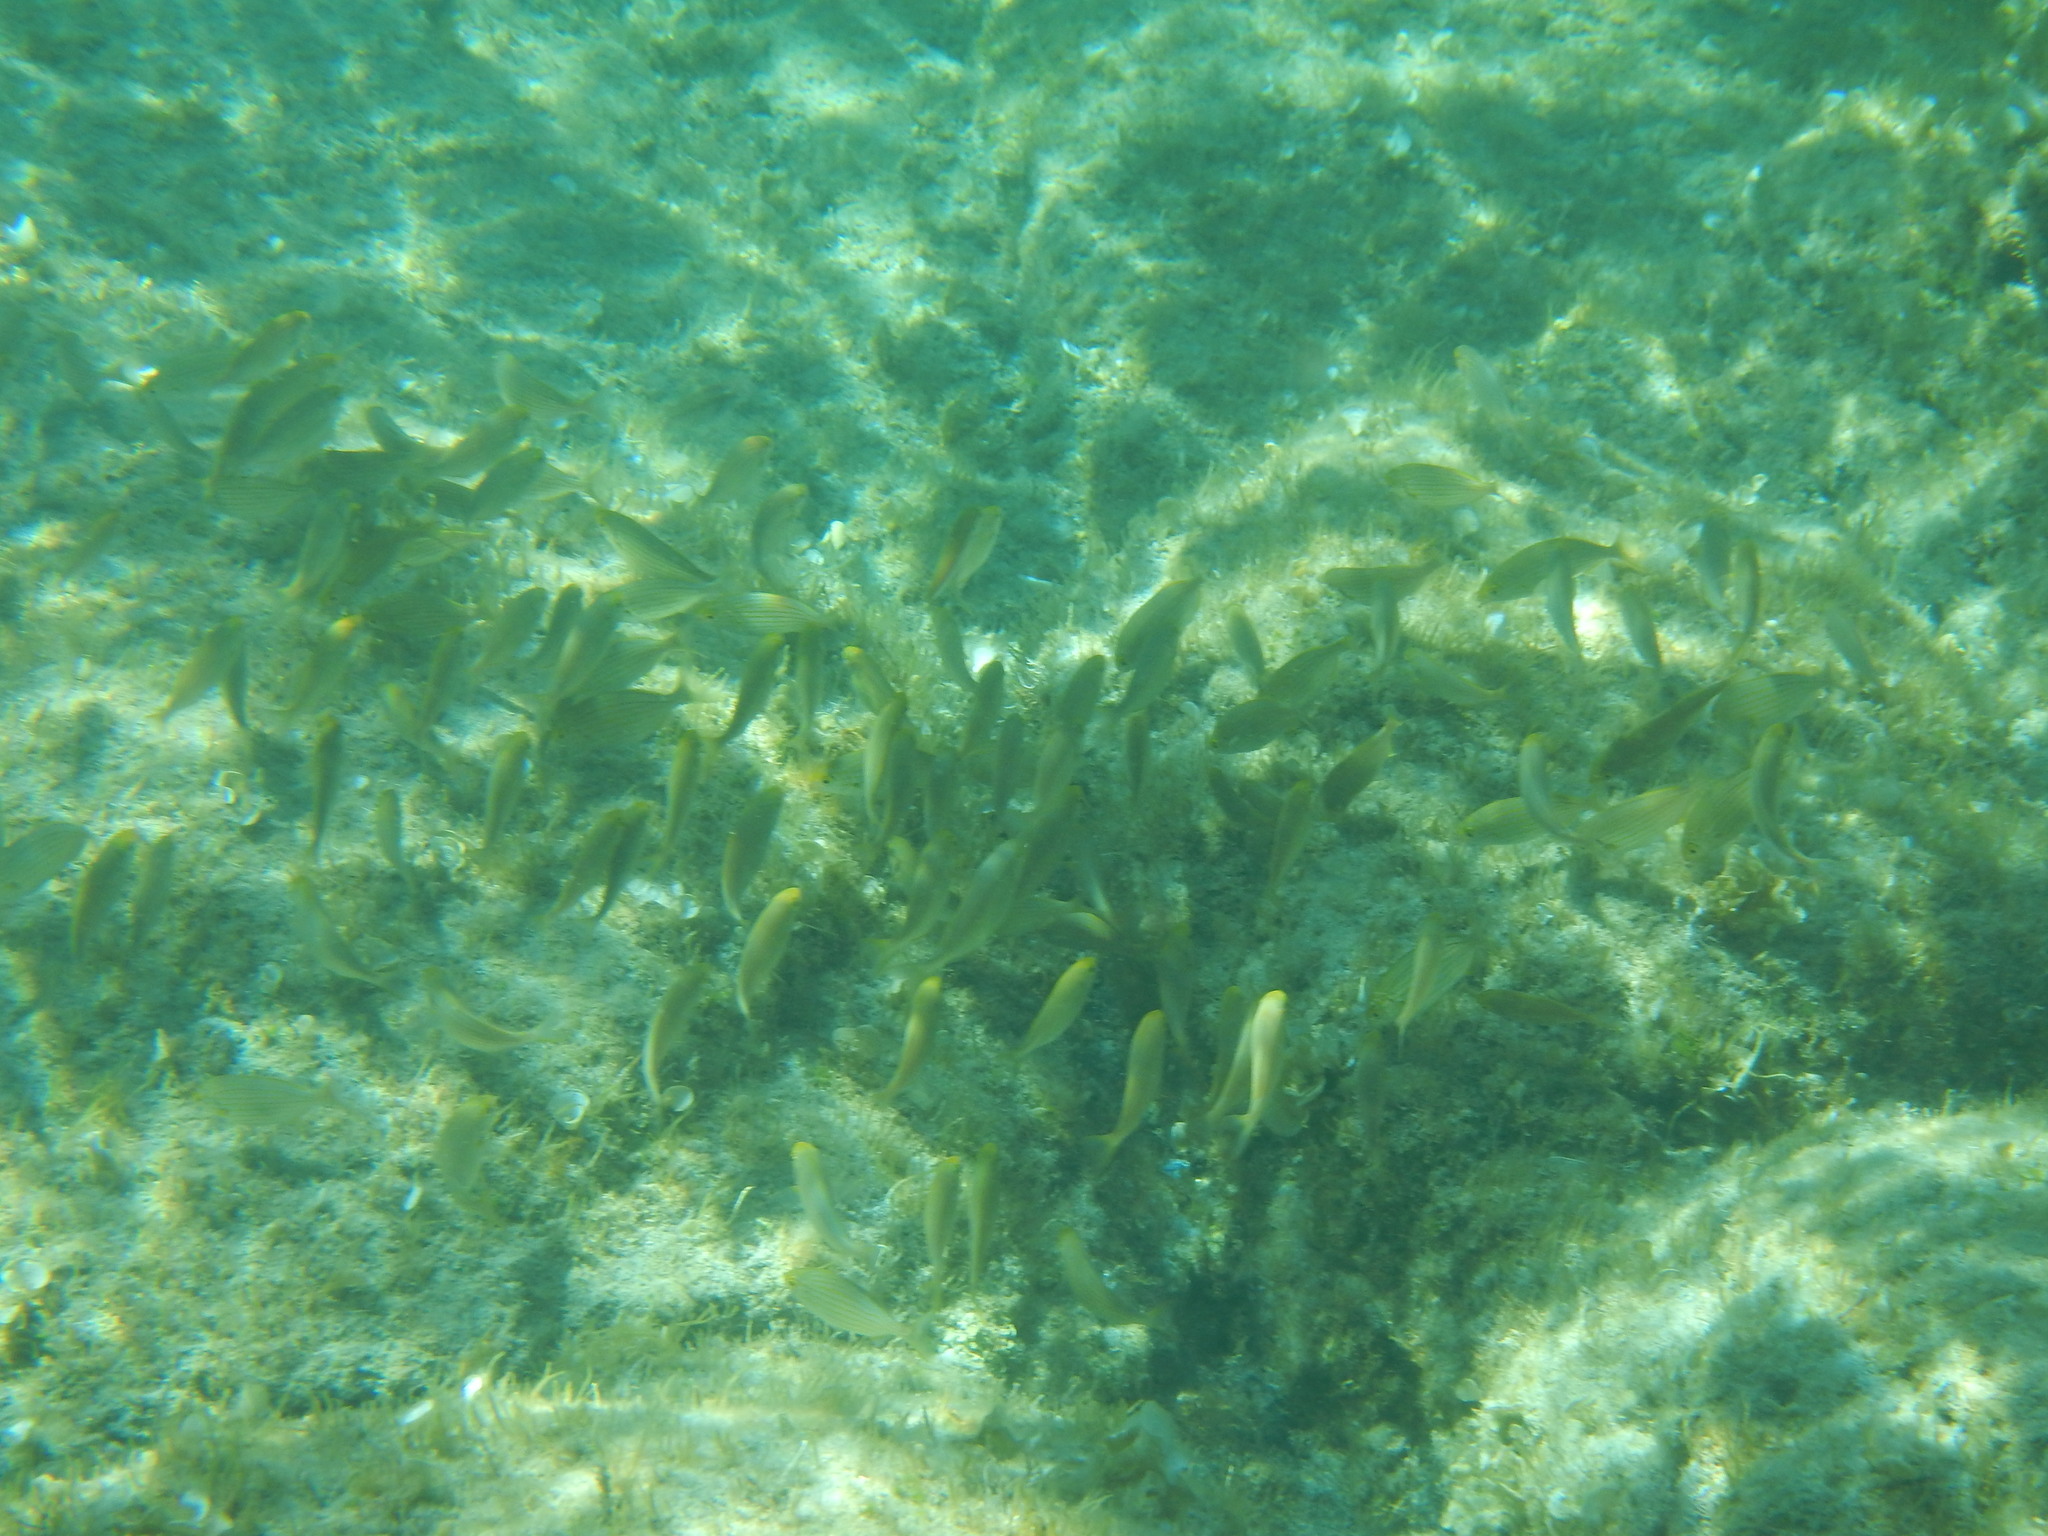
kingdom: Animalia
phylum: Chordata
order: Perciformes
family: Sparidae
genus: Sarpa
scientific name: Sarpa salpa
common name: Salema
